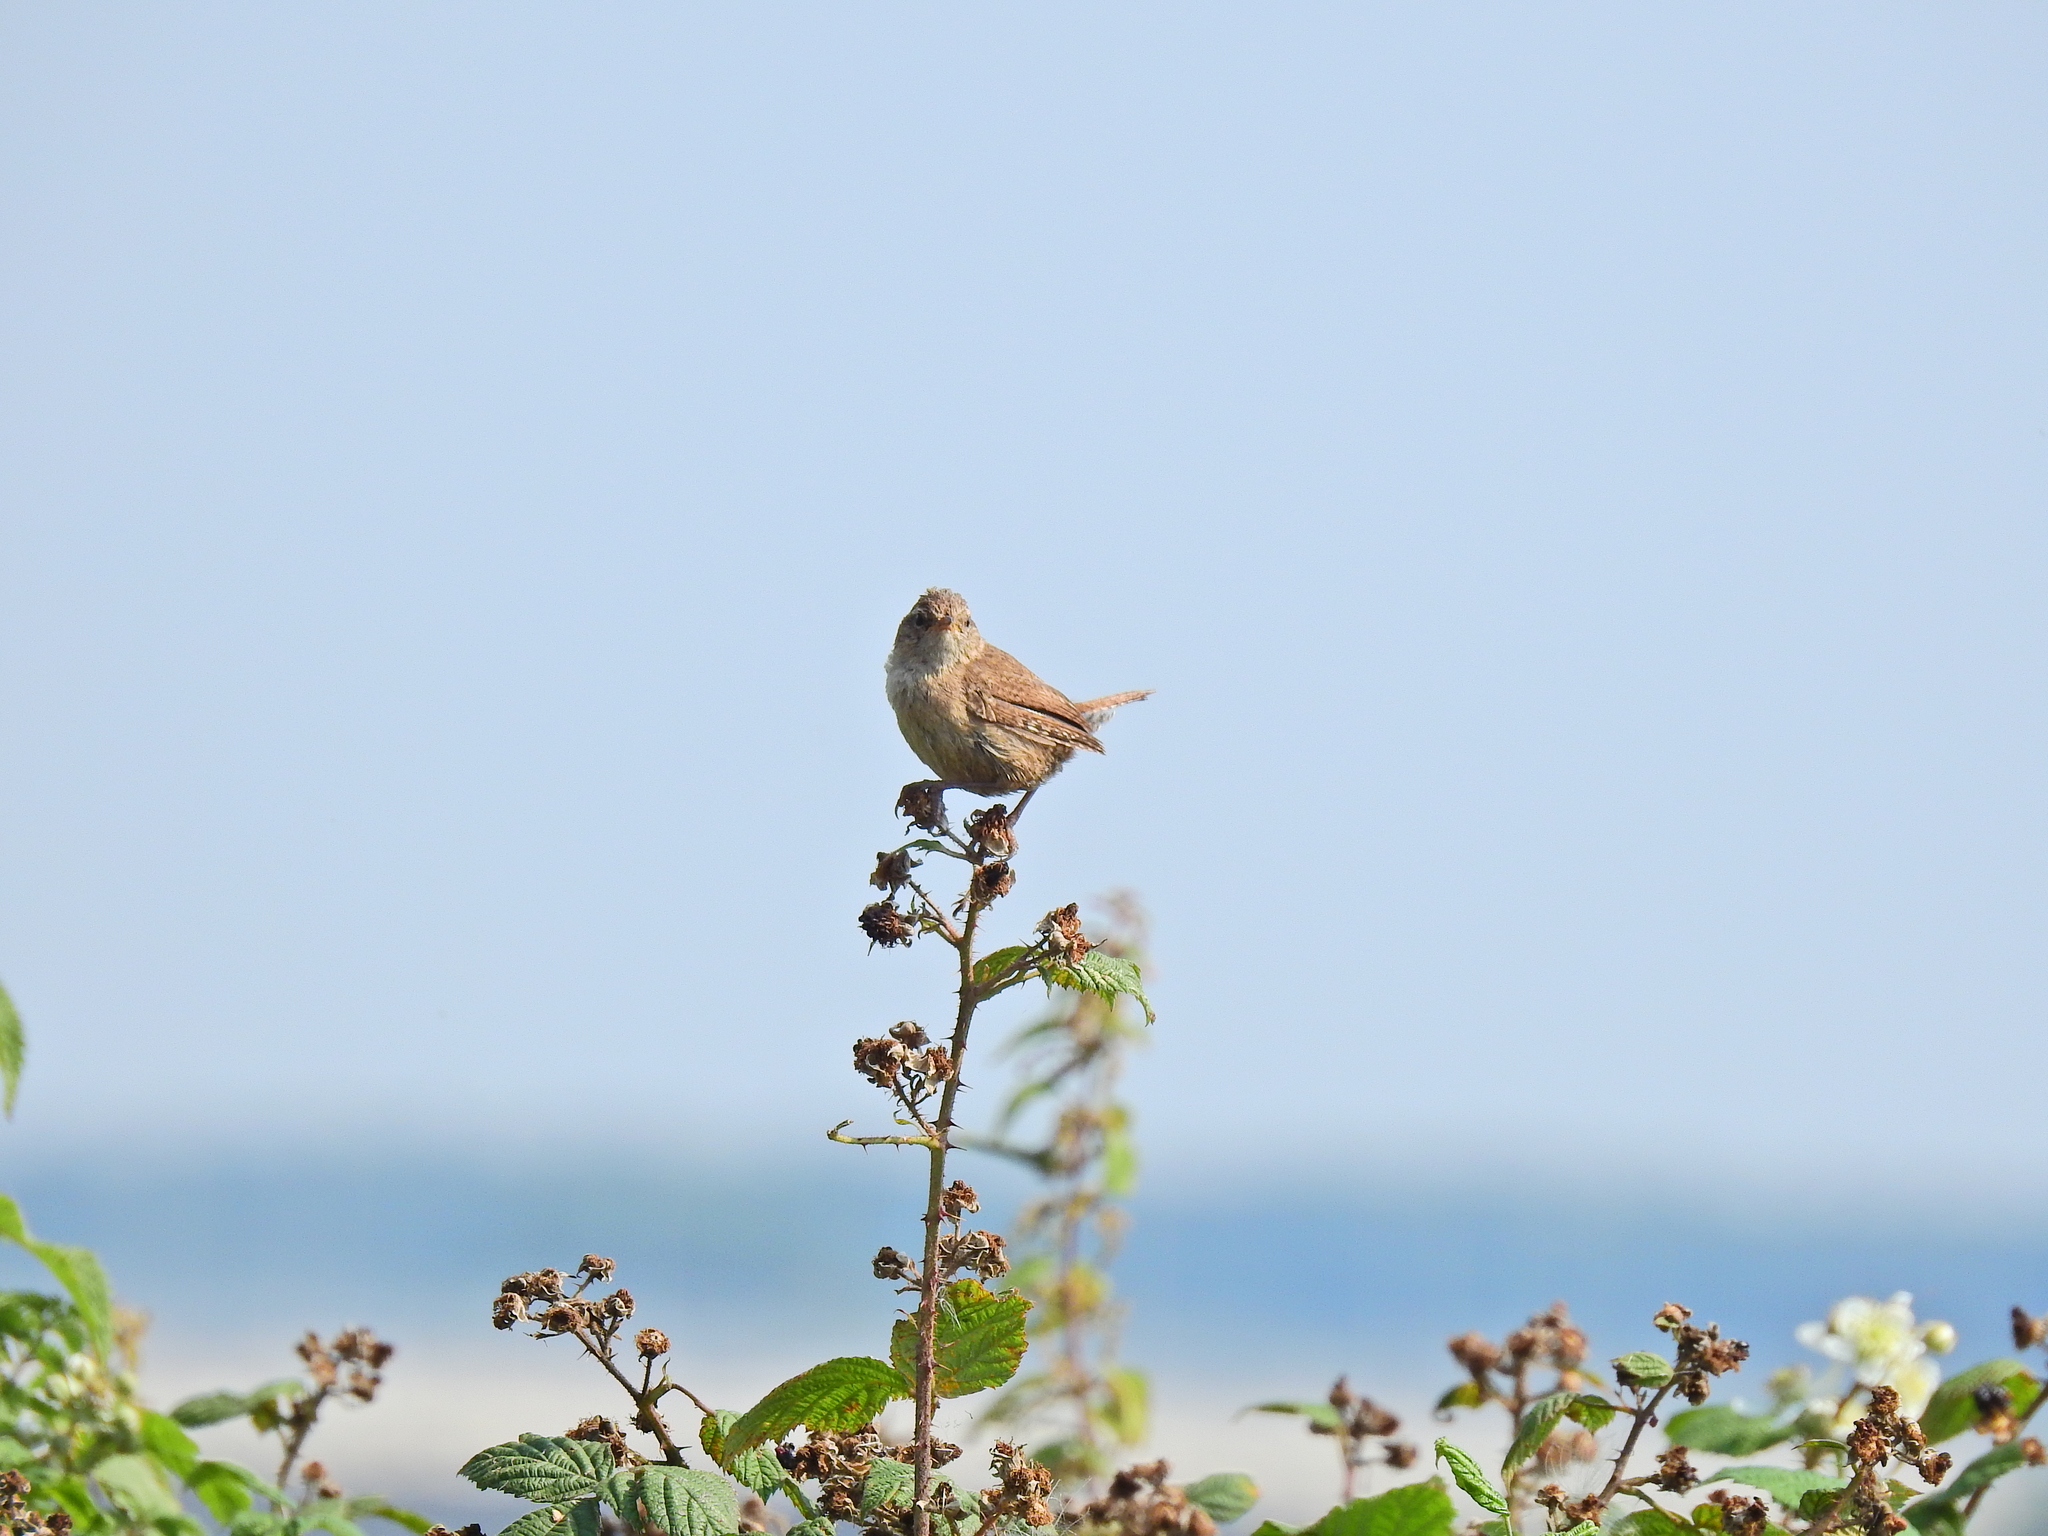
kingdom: Animalia
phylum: Chordata
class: Aves
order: Passeriformes
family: Troglodytidae
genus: Troglodytes
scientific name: Troglodytes troglodytes
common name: Eurasian wren
